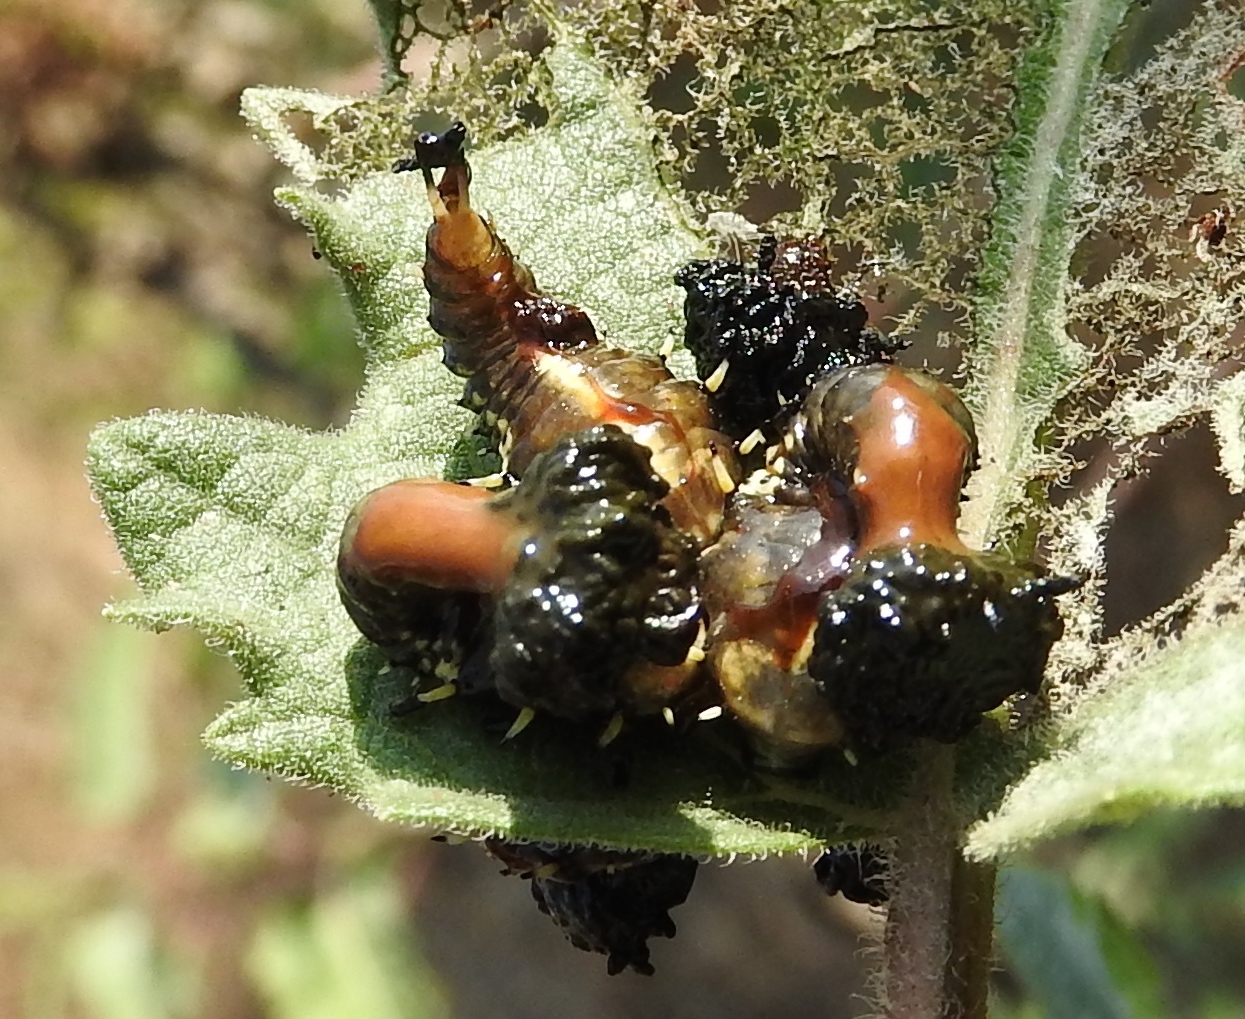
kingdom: Animalia
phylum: Arthropoda
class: Insecta
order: Coleoptera
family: Chrysomelidae
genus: Physonota
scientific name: Physonota arizonae
